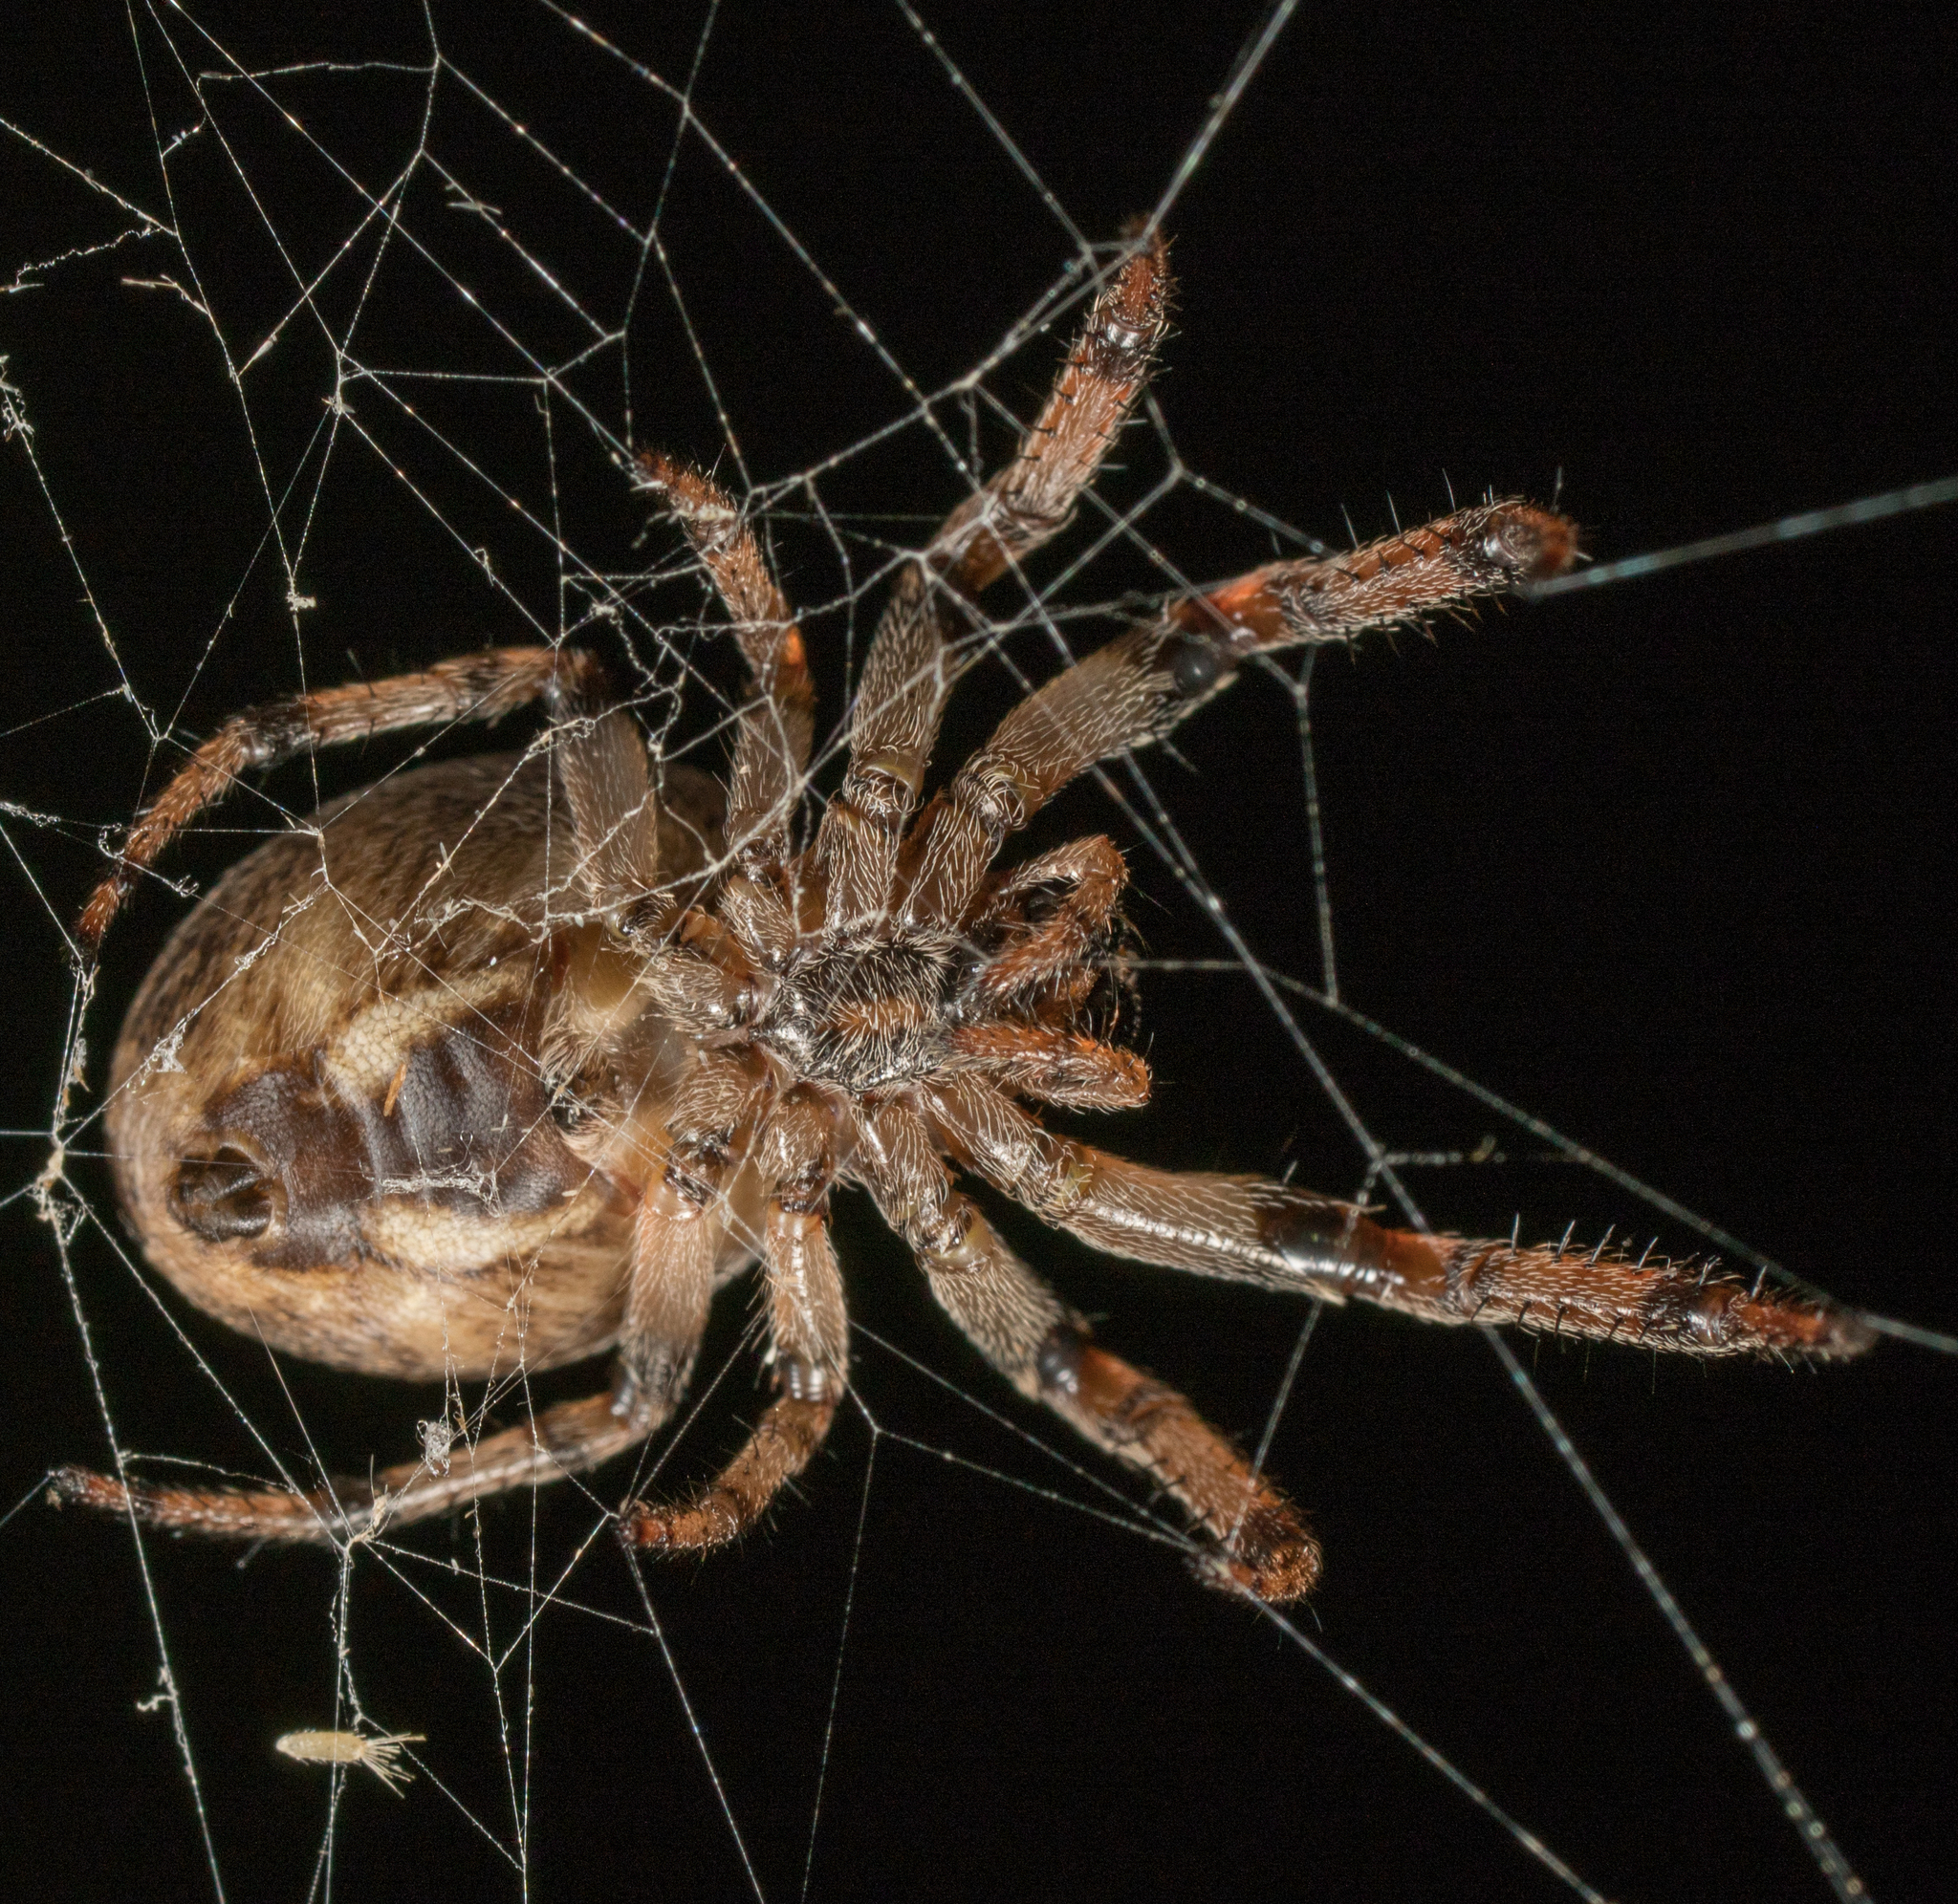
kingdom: Animalia
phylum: Arthropoda
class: Arachnida
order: Araneae
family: Araneidae
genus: Larinioides
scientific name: Larinioides cornutus
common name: Furrow orbweaver
